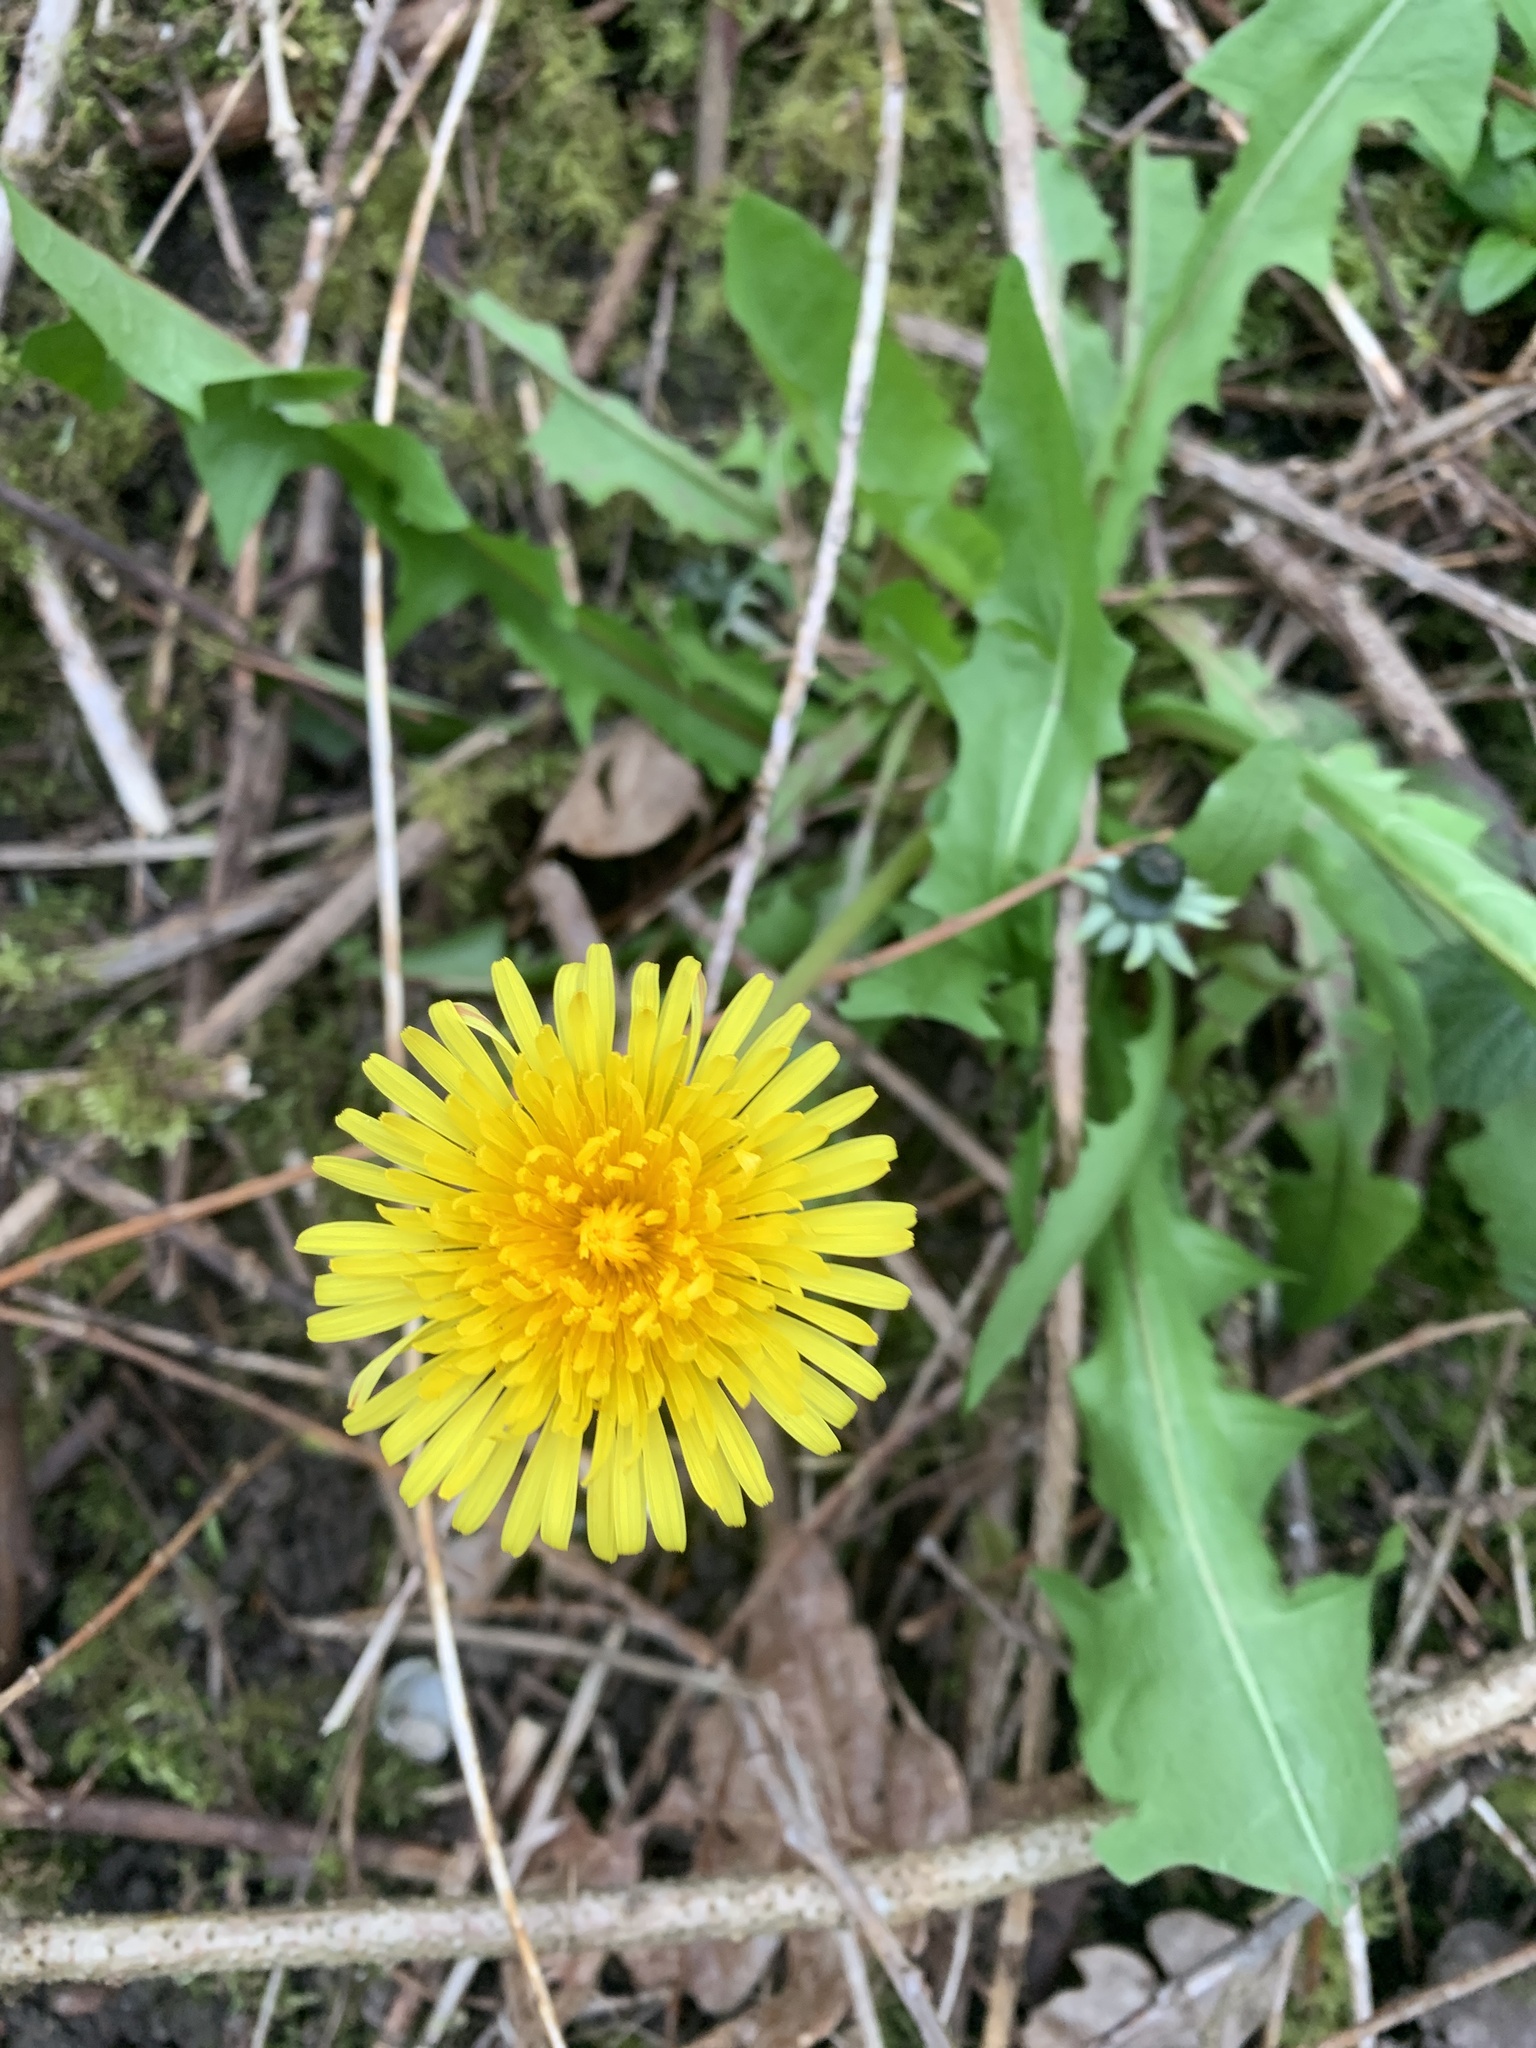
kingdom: Plantae
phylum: Tracheophyta
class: Magnoliopsida
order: Asterales
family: Asteraceae
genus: Taraxacum
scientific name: Taraxacum officinale
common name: Common dandelion
